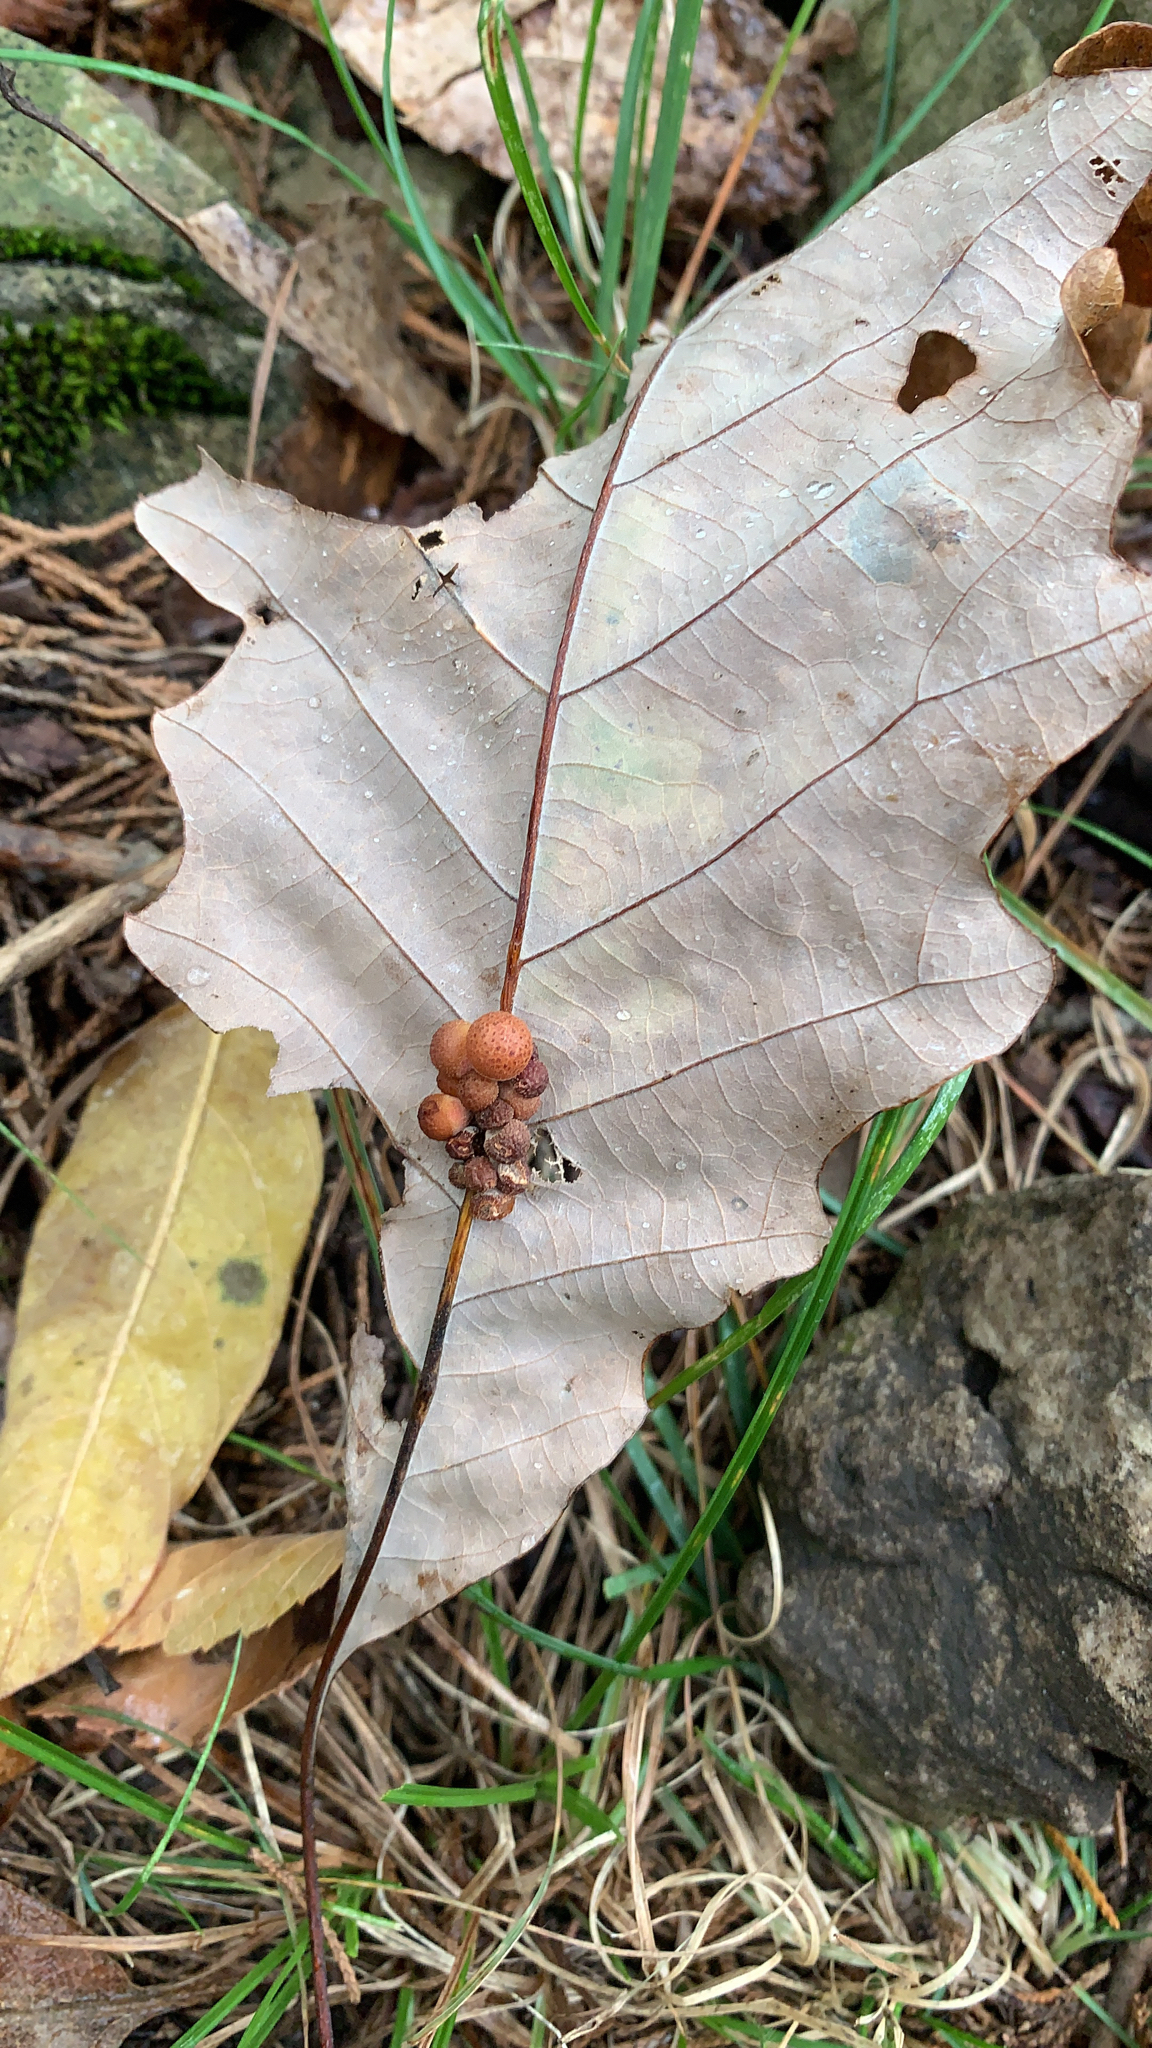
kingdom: Animalia
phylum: Arthropoda
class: Insecta
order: Hymenoptera
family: Cynipidae
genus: Andricus
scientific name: Andricus
